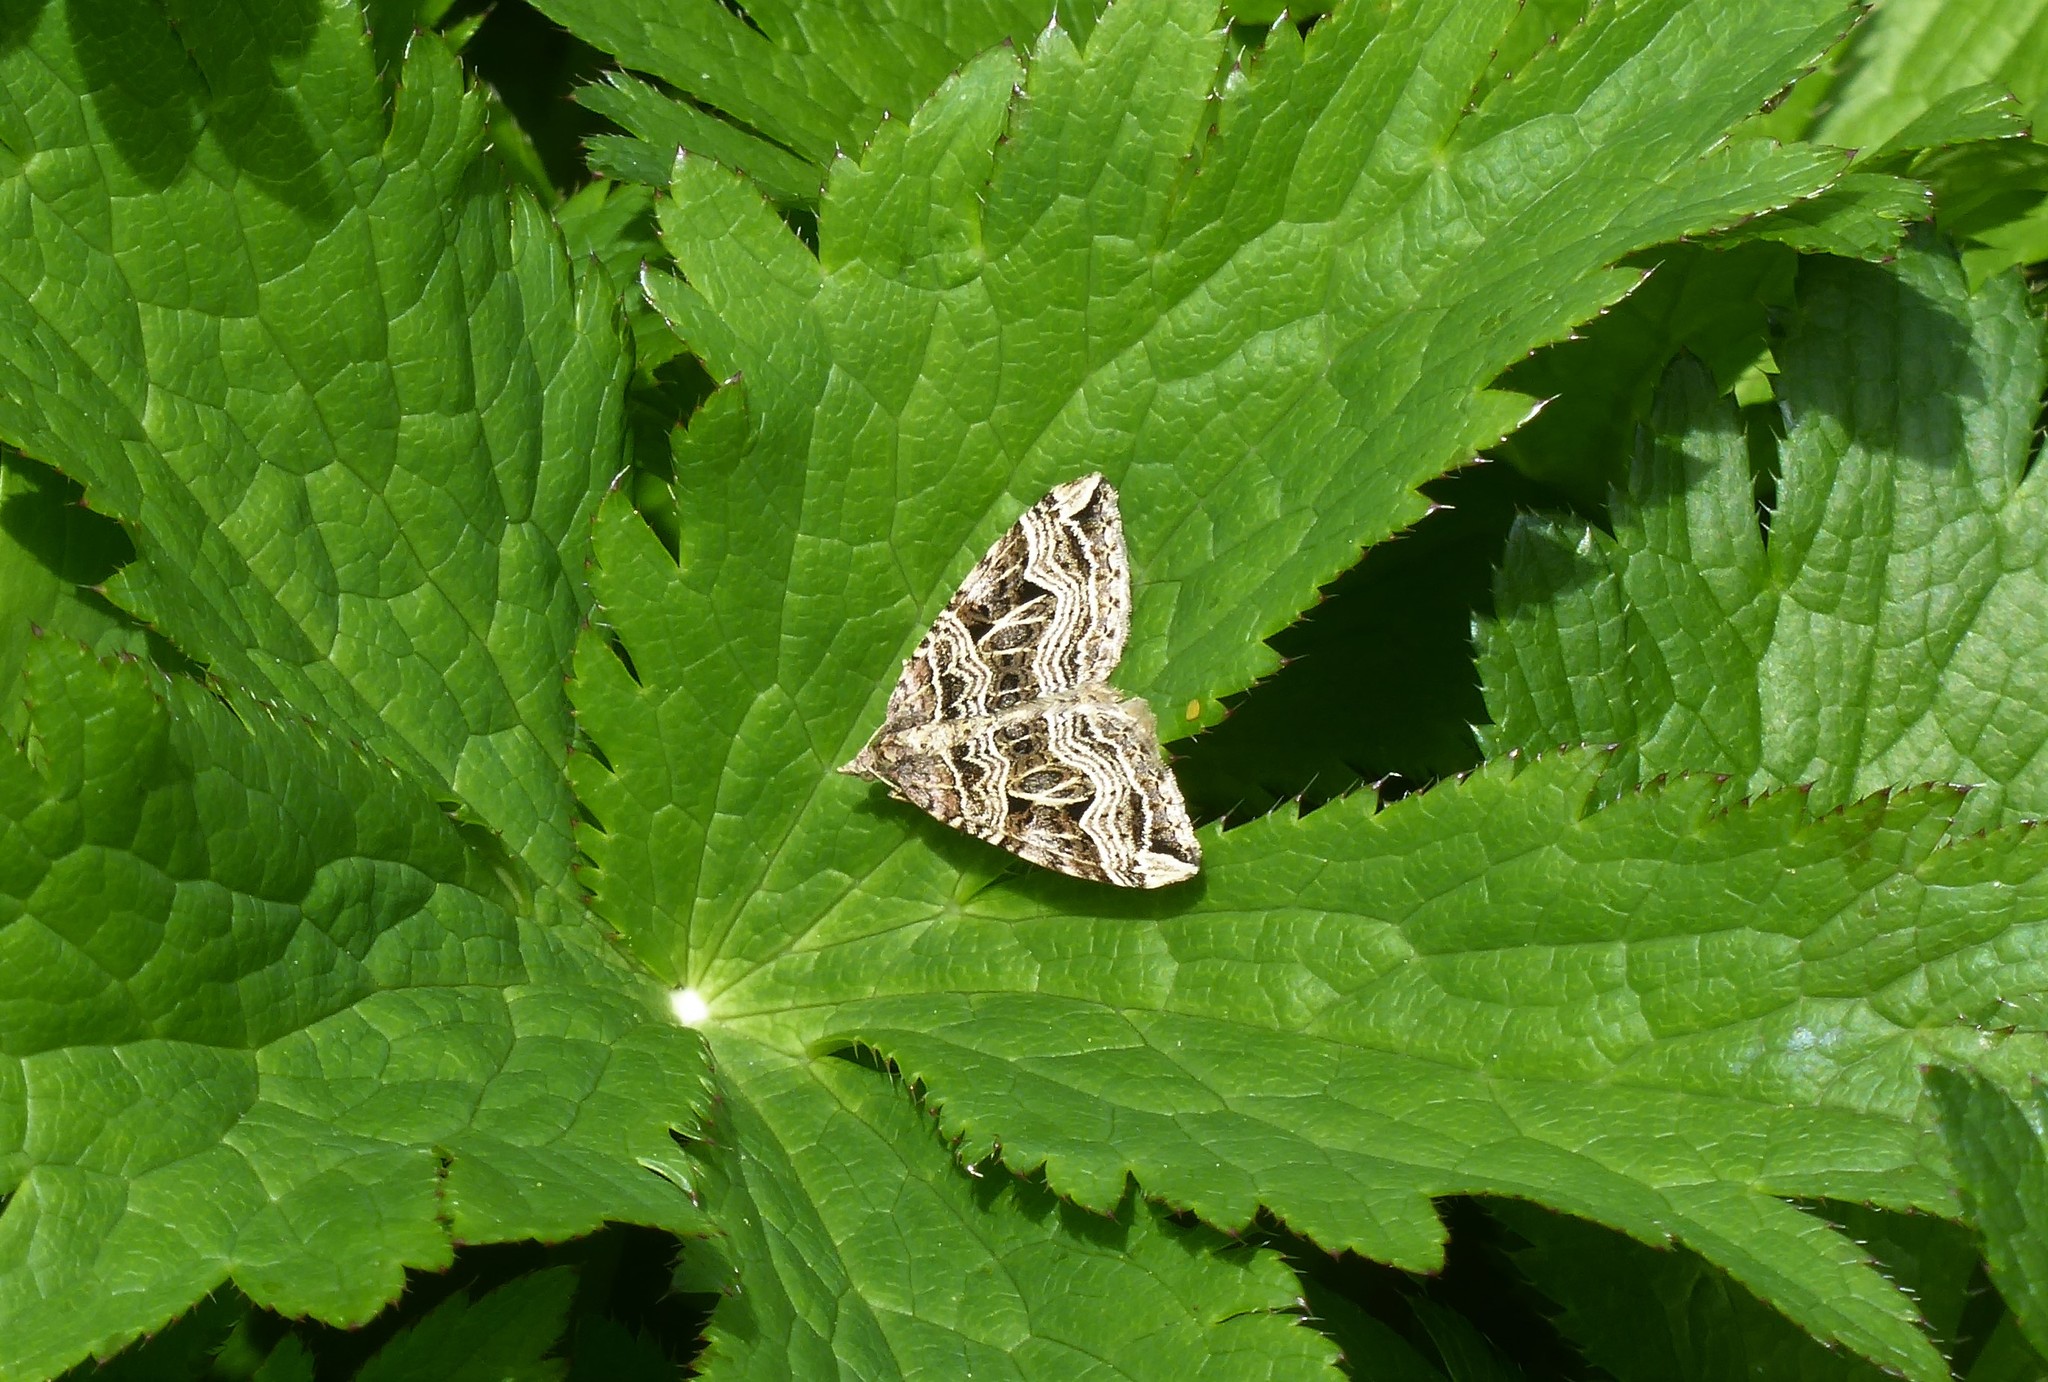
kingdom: Animalia
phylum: Arthropoda
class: Insecta
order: Lepidoptera
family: Geometridae
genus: Xanthorhoe
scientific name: Xanthorhoe semifissata
